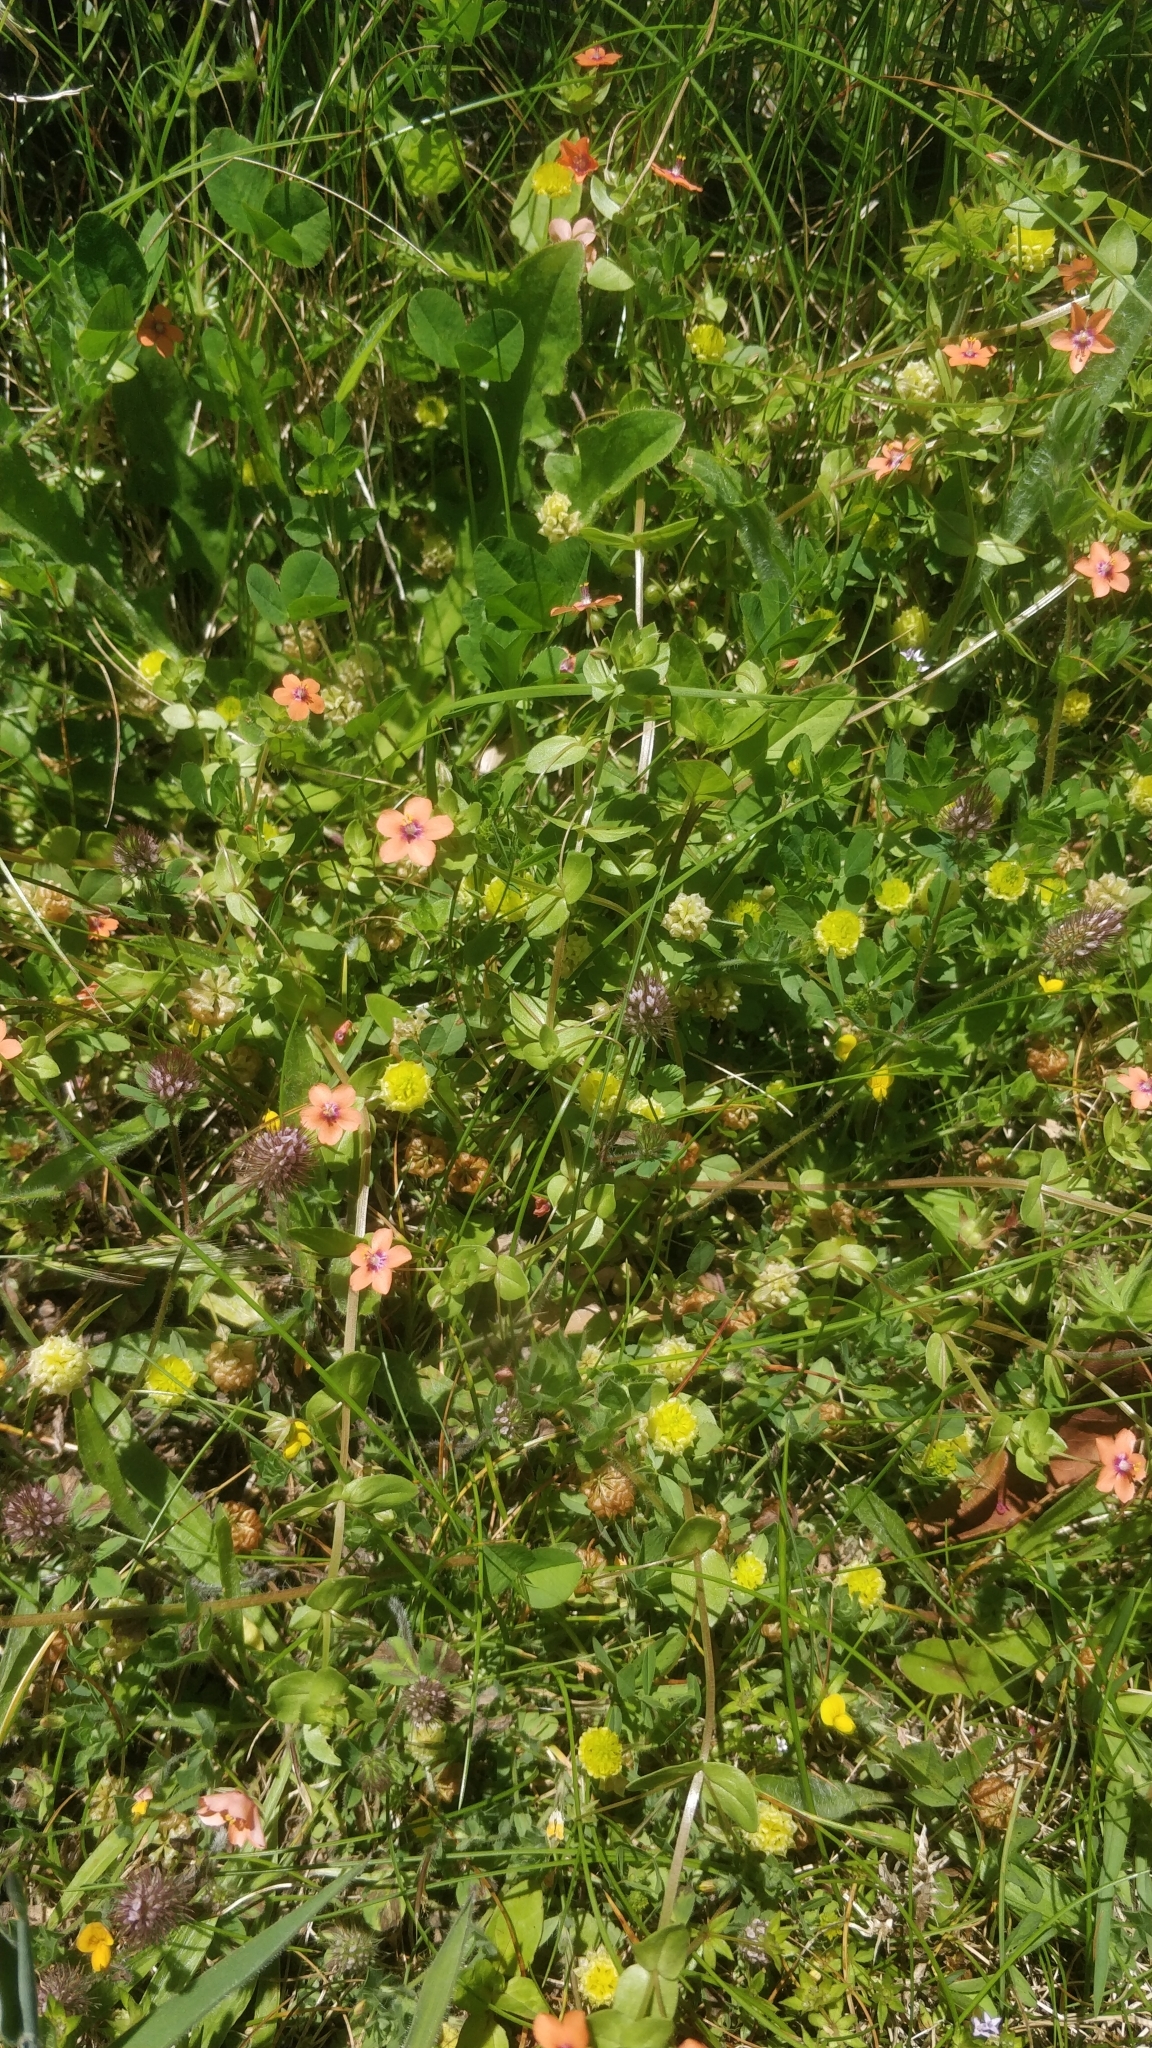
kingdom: Plantae
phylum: Tracheophyta
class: Magnoliopsida
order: Ericales
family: Primulaceae
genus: Lysimachia
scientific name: Lysimachia arvensis
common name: Scarlet pimpernel
